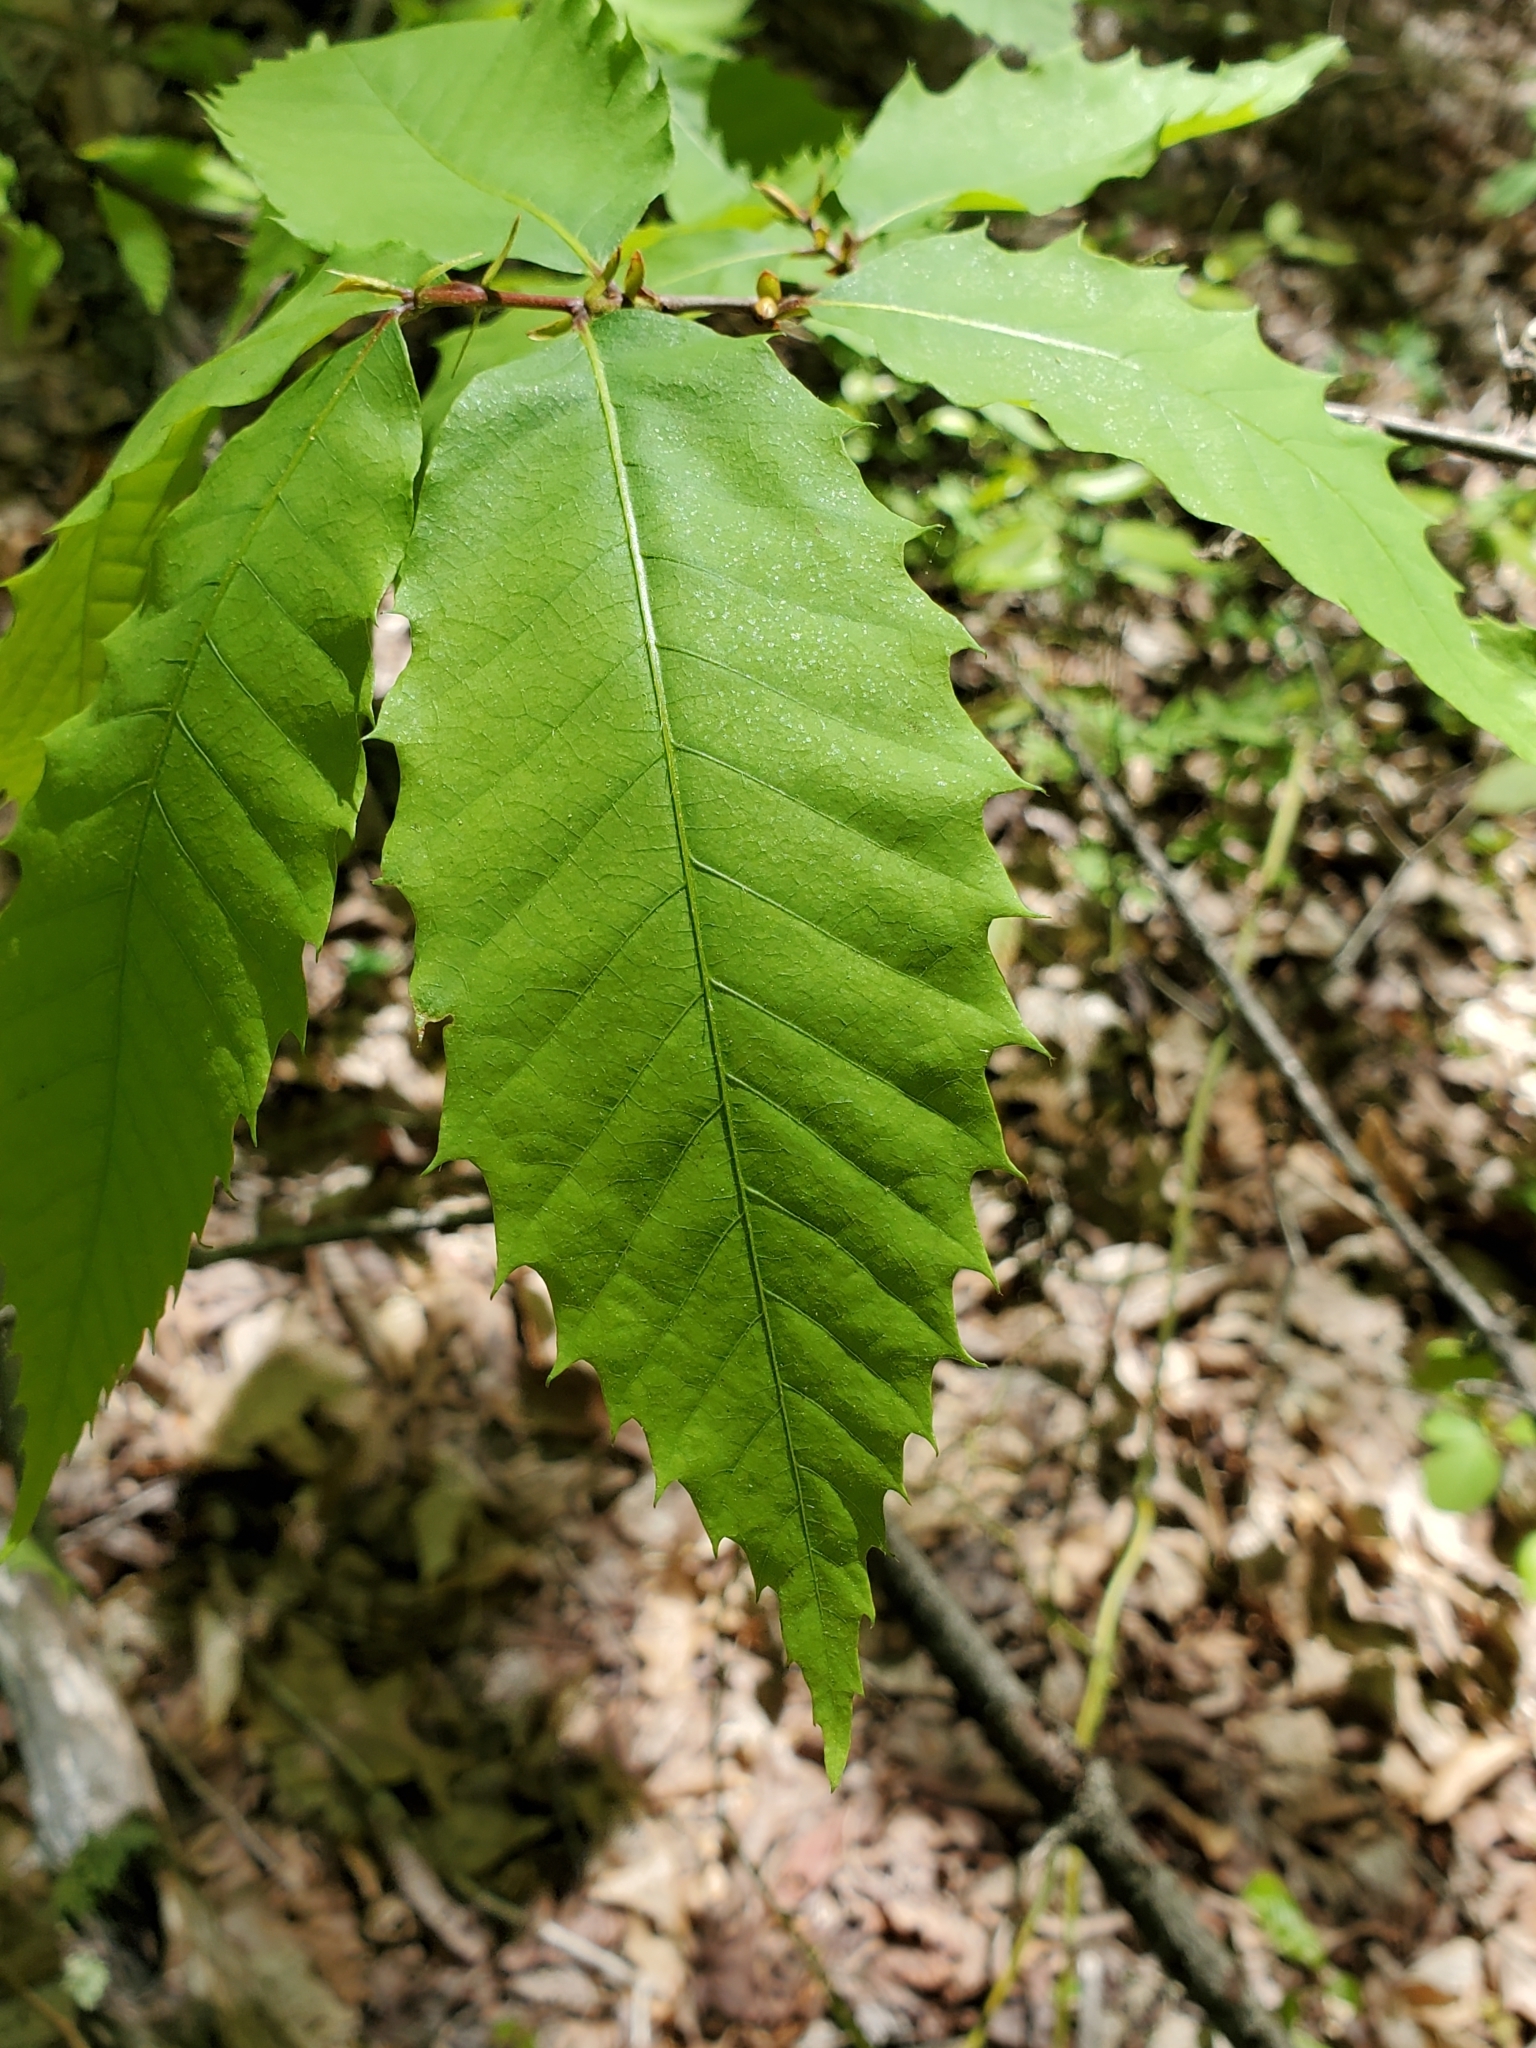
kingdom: Plantae
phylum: Tracheophyta
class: Magnoliopsida
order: Fagales
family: Fagaceae
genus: Castanea
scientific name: Castanea dentata
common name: American chestnut
